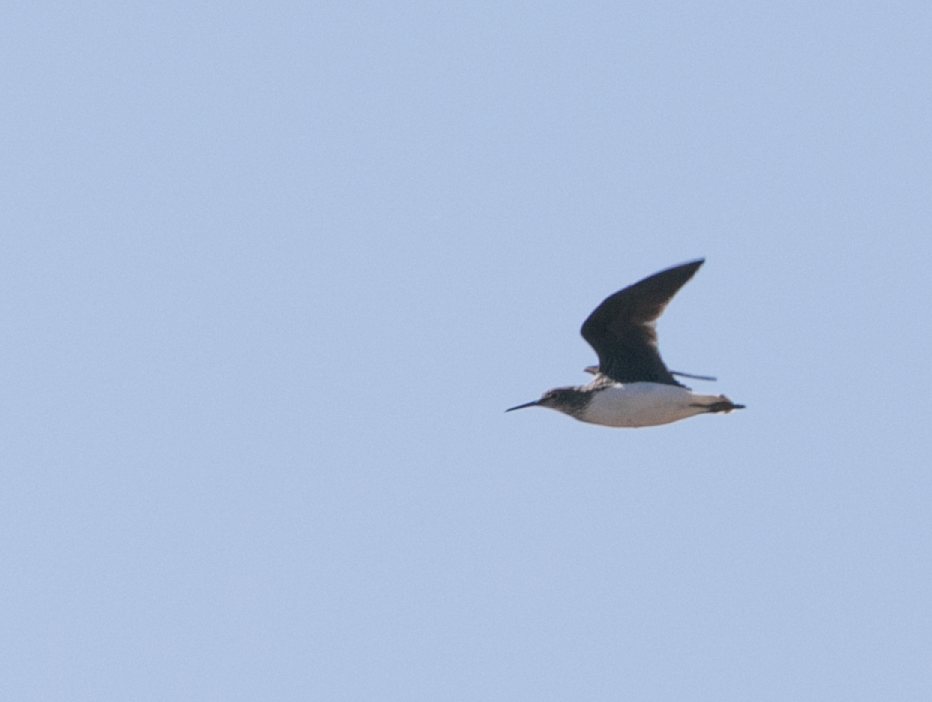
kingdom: Animalia
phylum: Chordata
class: Aves
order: Charadriiformes
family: Scolopacidae
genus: Tringa
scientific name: Tringa ochropus
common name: Green sandpiper
